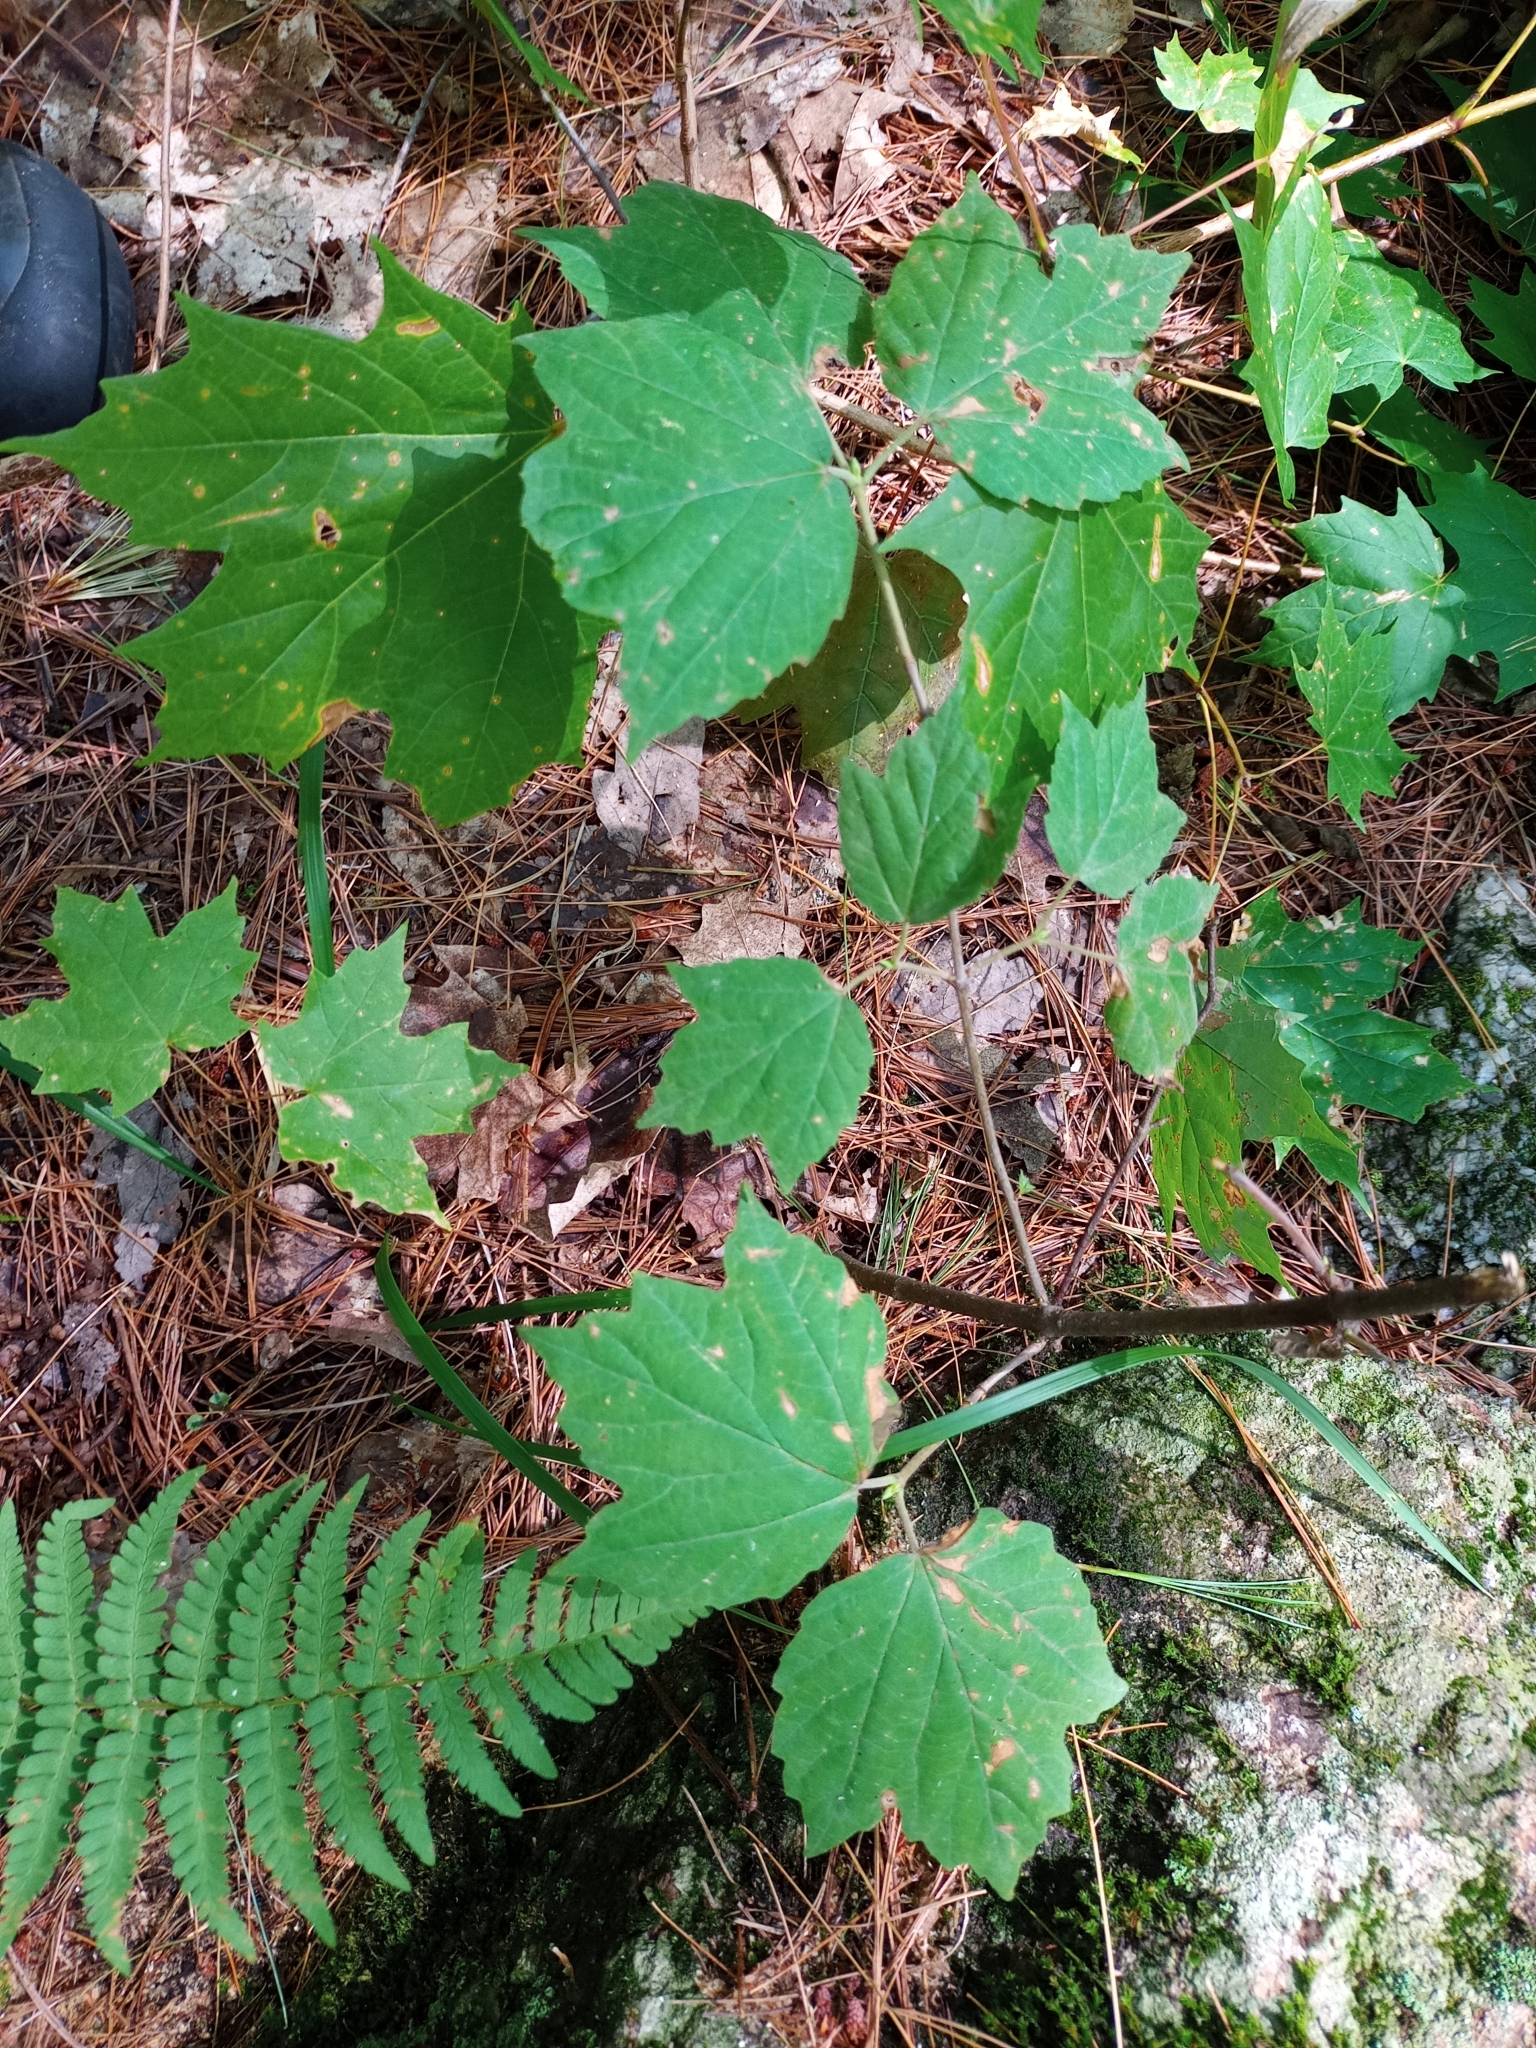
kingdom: Plantae
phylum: Tracheophyta
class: Magnoliopsida
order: Dipsacales
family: Viburnaceae
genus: Viburnum
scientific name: Viburnum acerifolium
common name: Dockmackie
